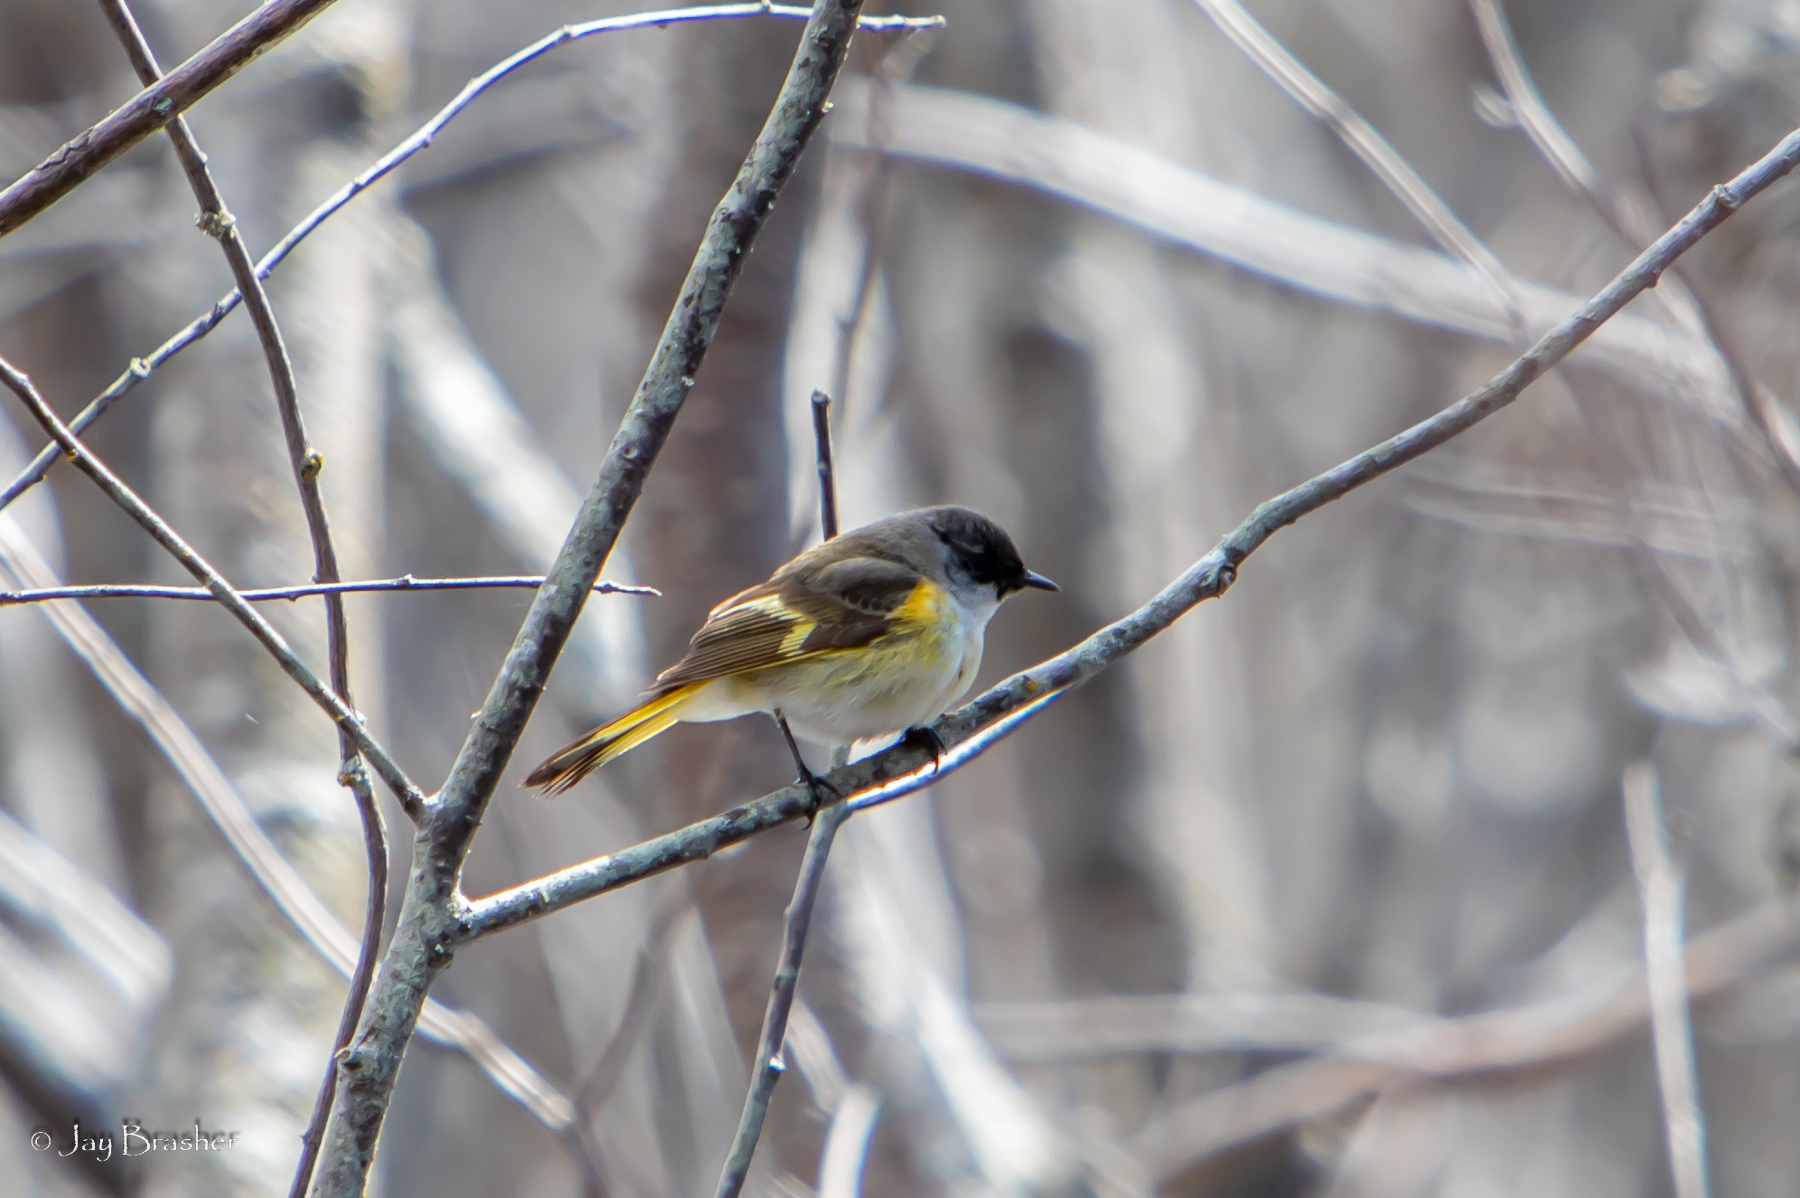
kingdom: Animalia
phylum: Chordata
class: Aves
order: Passeriformes
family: Parulidae
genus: Setophaga
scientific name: Setophaga ruticilla
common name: American redstart
